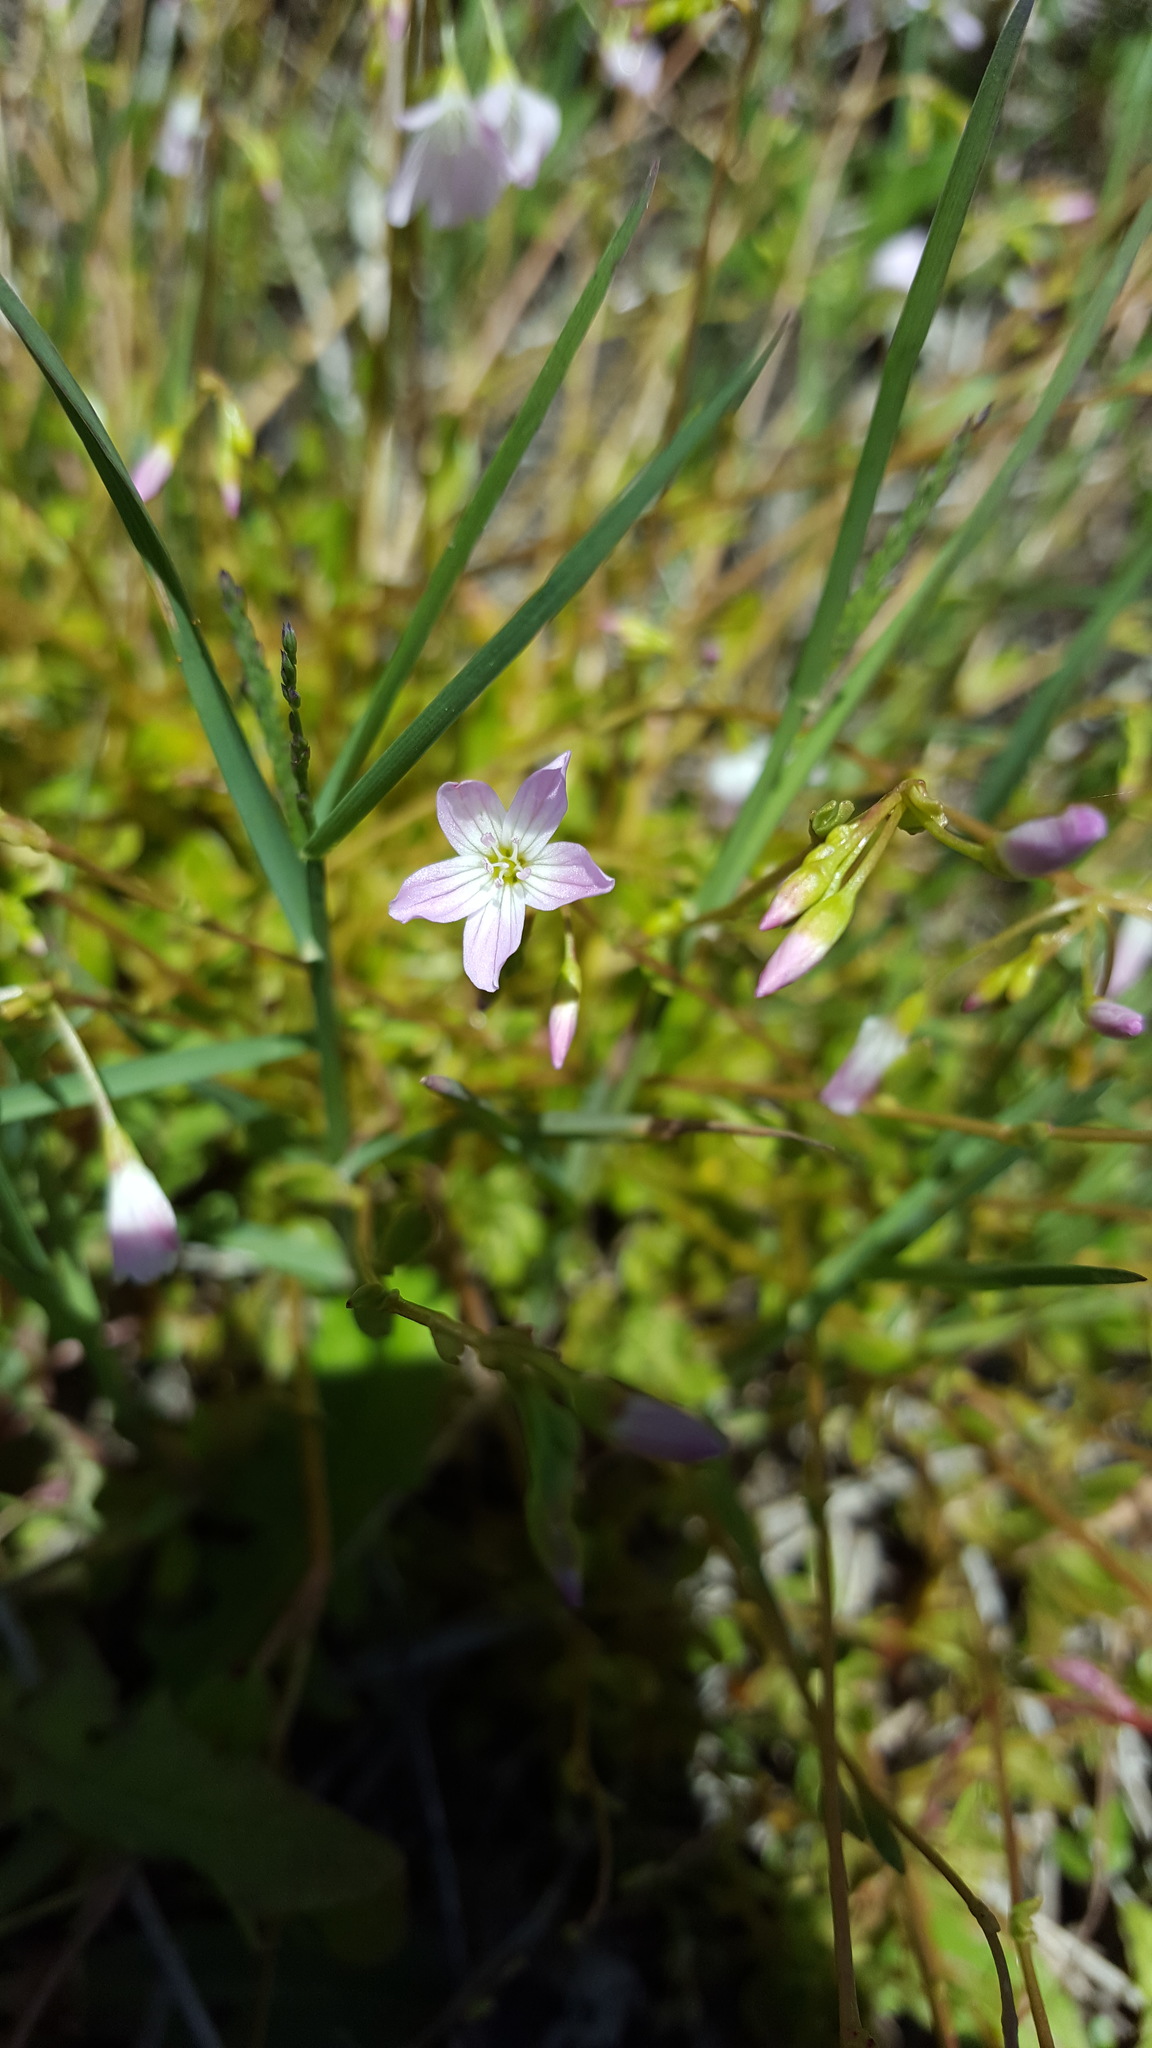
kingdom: Plantae
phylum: Tracheophyta
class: Magnoliopsida
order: Caryophyllales
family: Montiaceae
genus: Montia
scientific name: Montia parvifolia
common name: Small-leaved blinks
